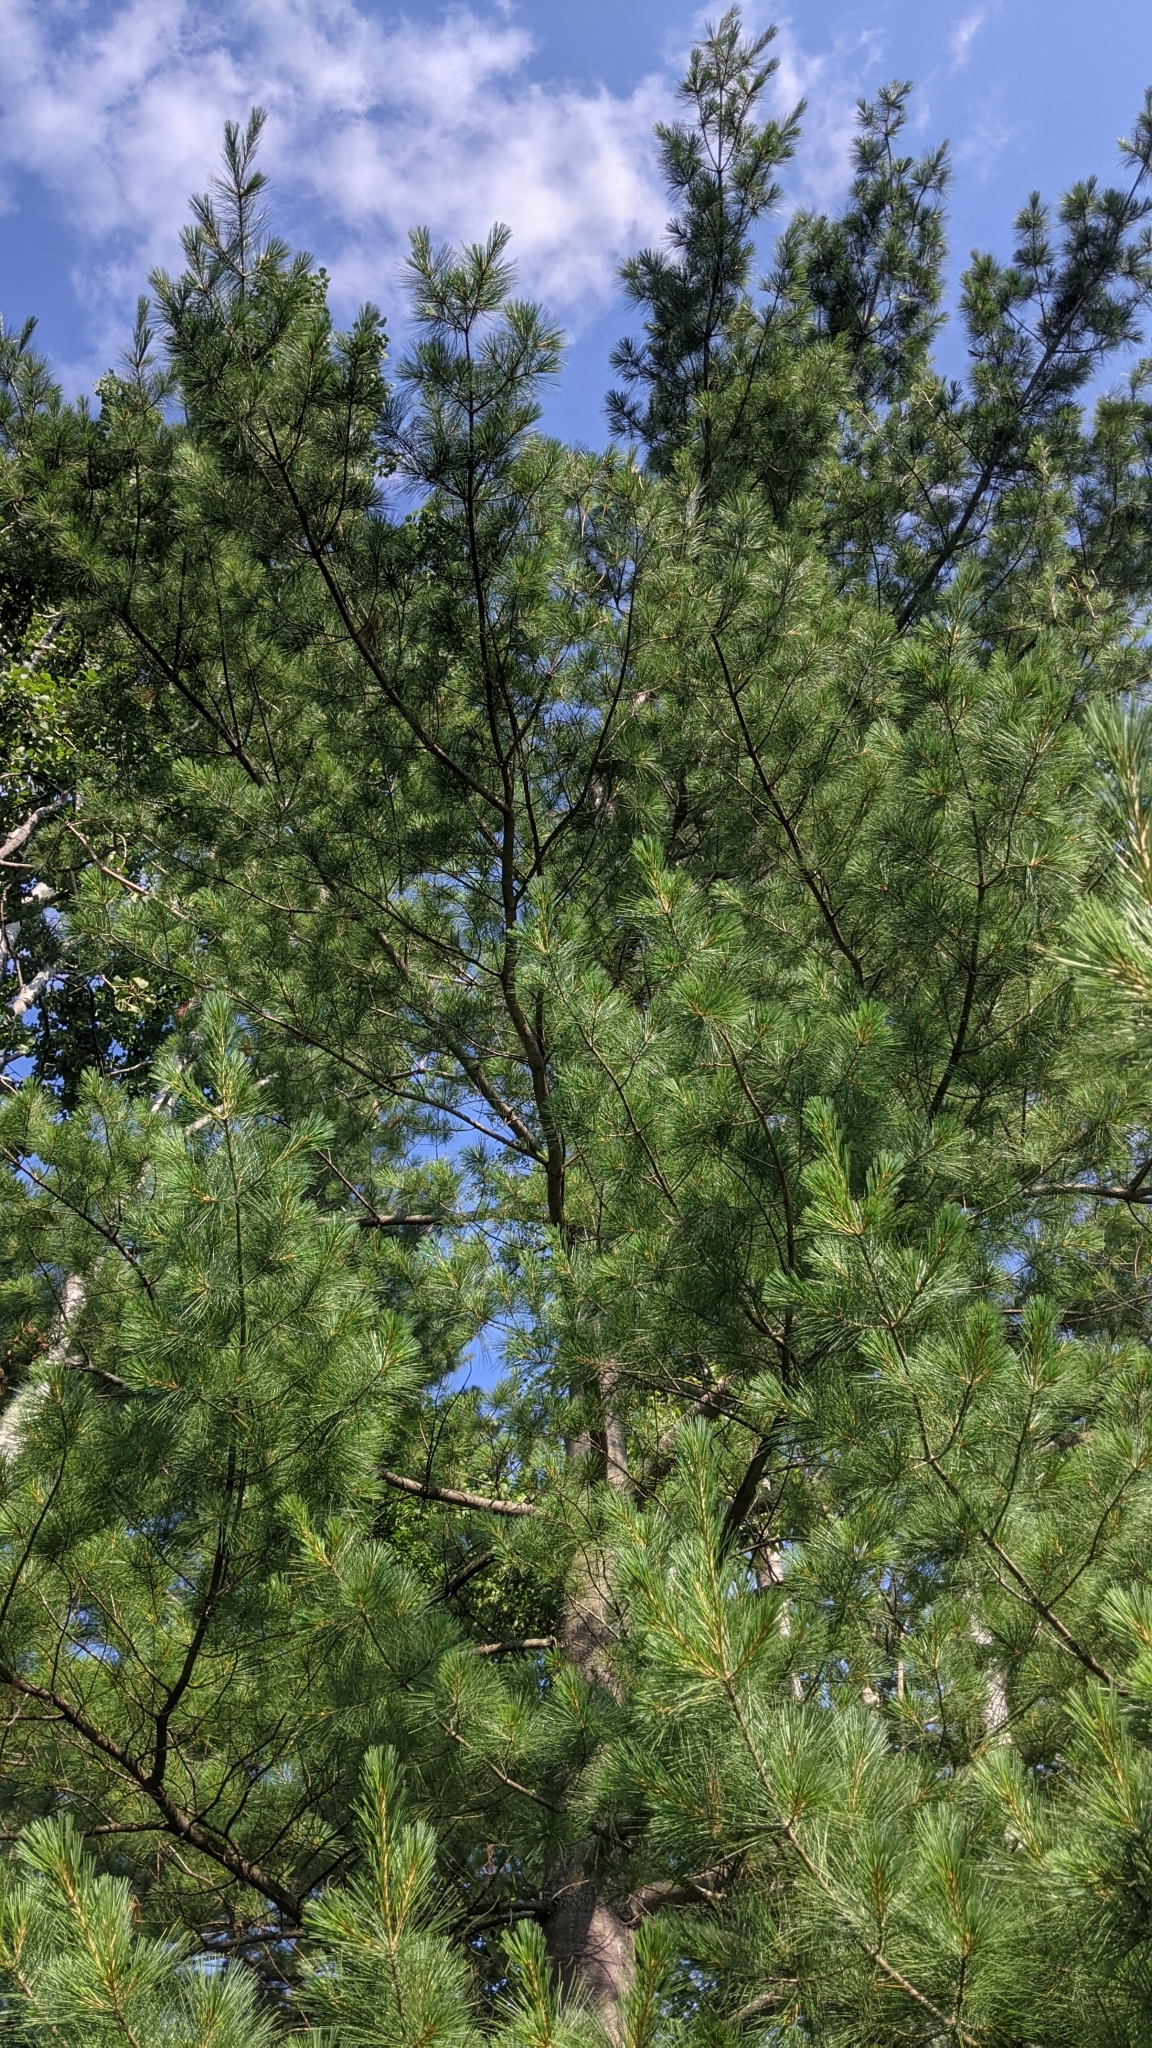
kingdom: Plantae
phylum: Tracheophyta
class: Pinopsida
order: Pinales
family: Pinaceae
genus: Pinus
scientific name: Pinus strobus
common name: Weymouth pine
